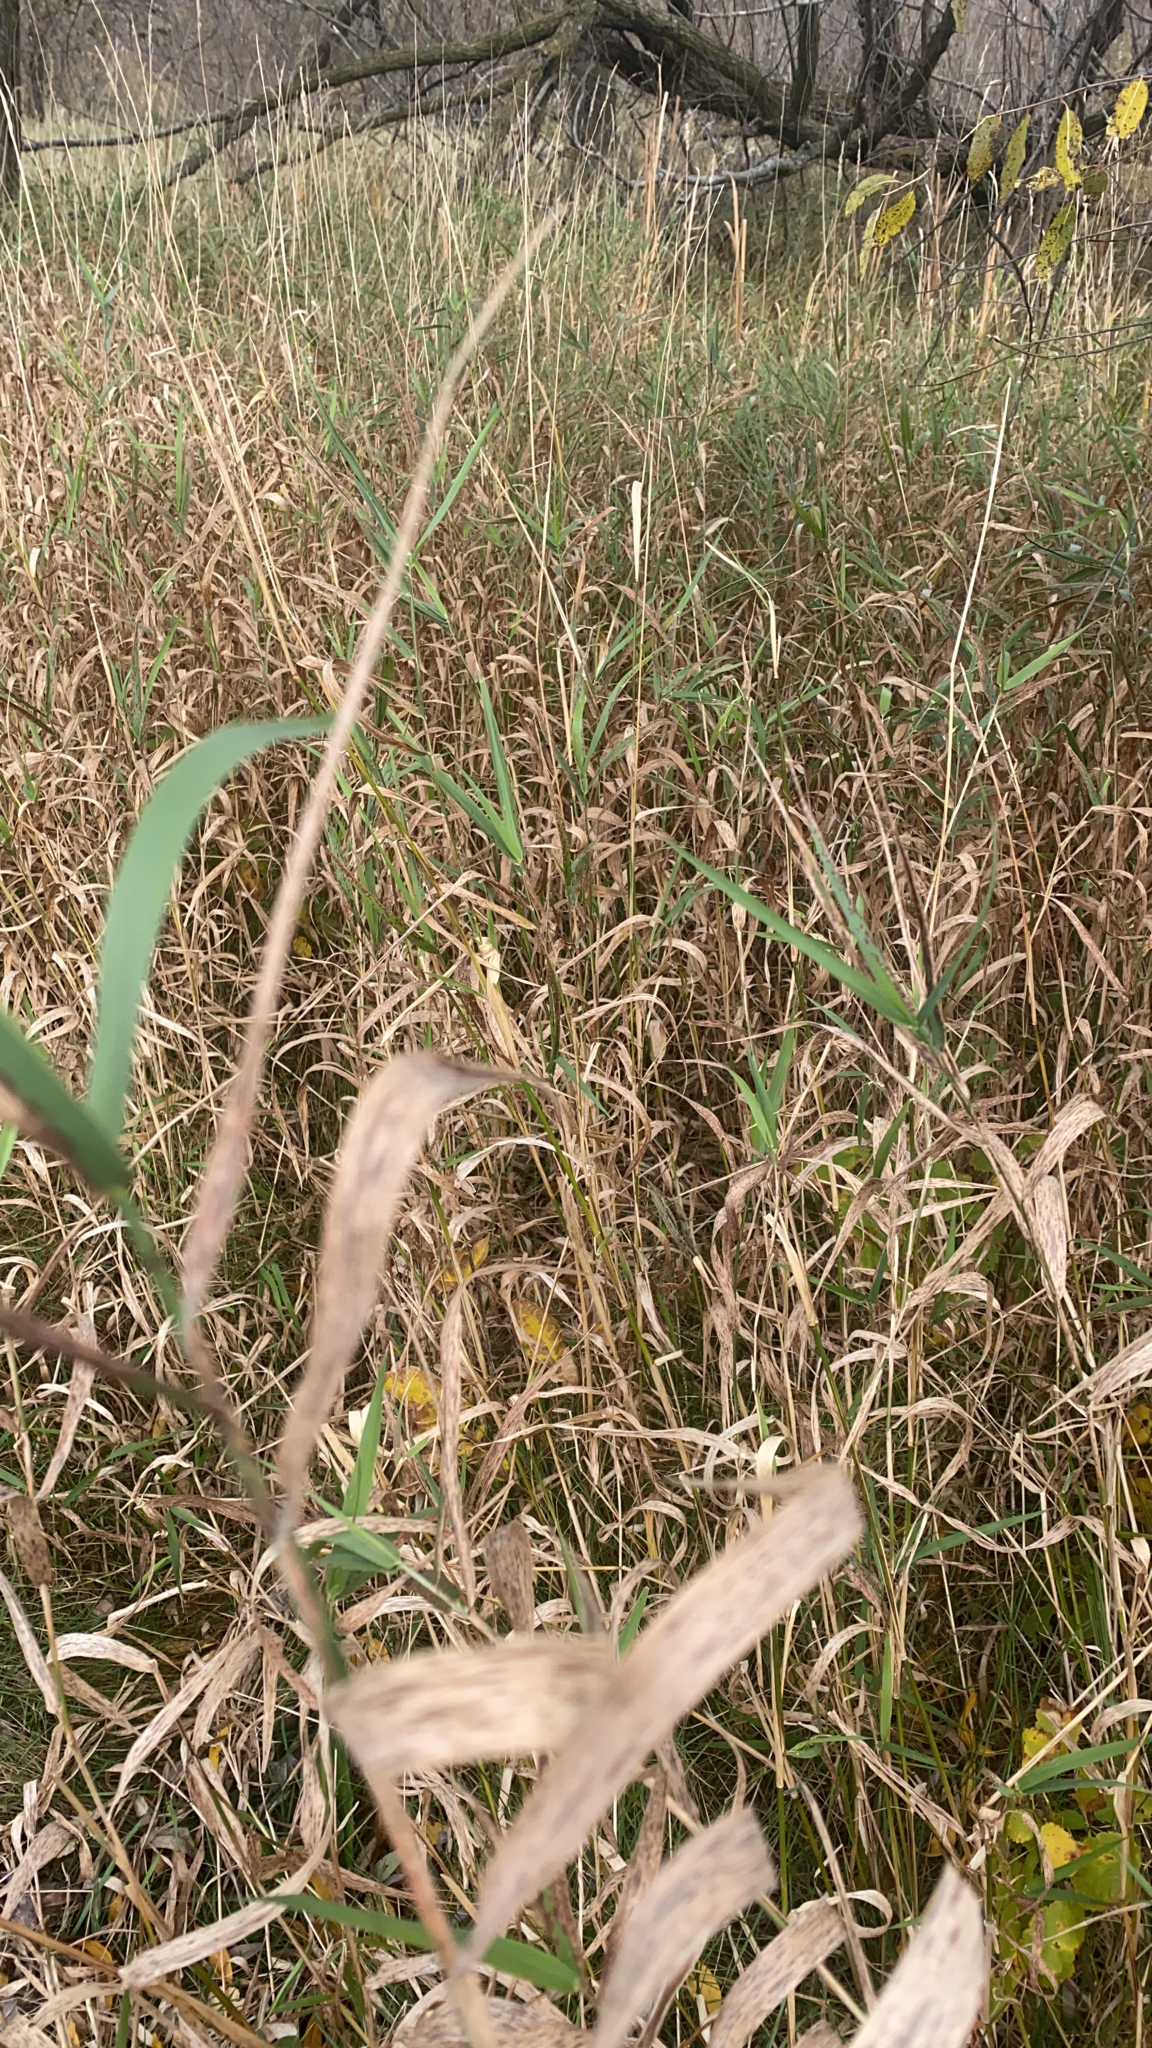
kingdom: Plantae
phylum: Tracheophyta
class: Liliopsida
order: Poales
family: Poaceae
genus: Phalaris
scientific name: Phalaris arundinacea
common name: Reed canary-grass
